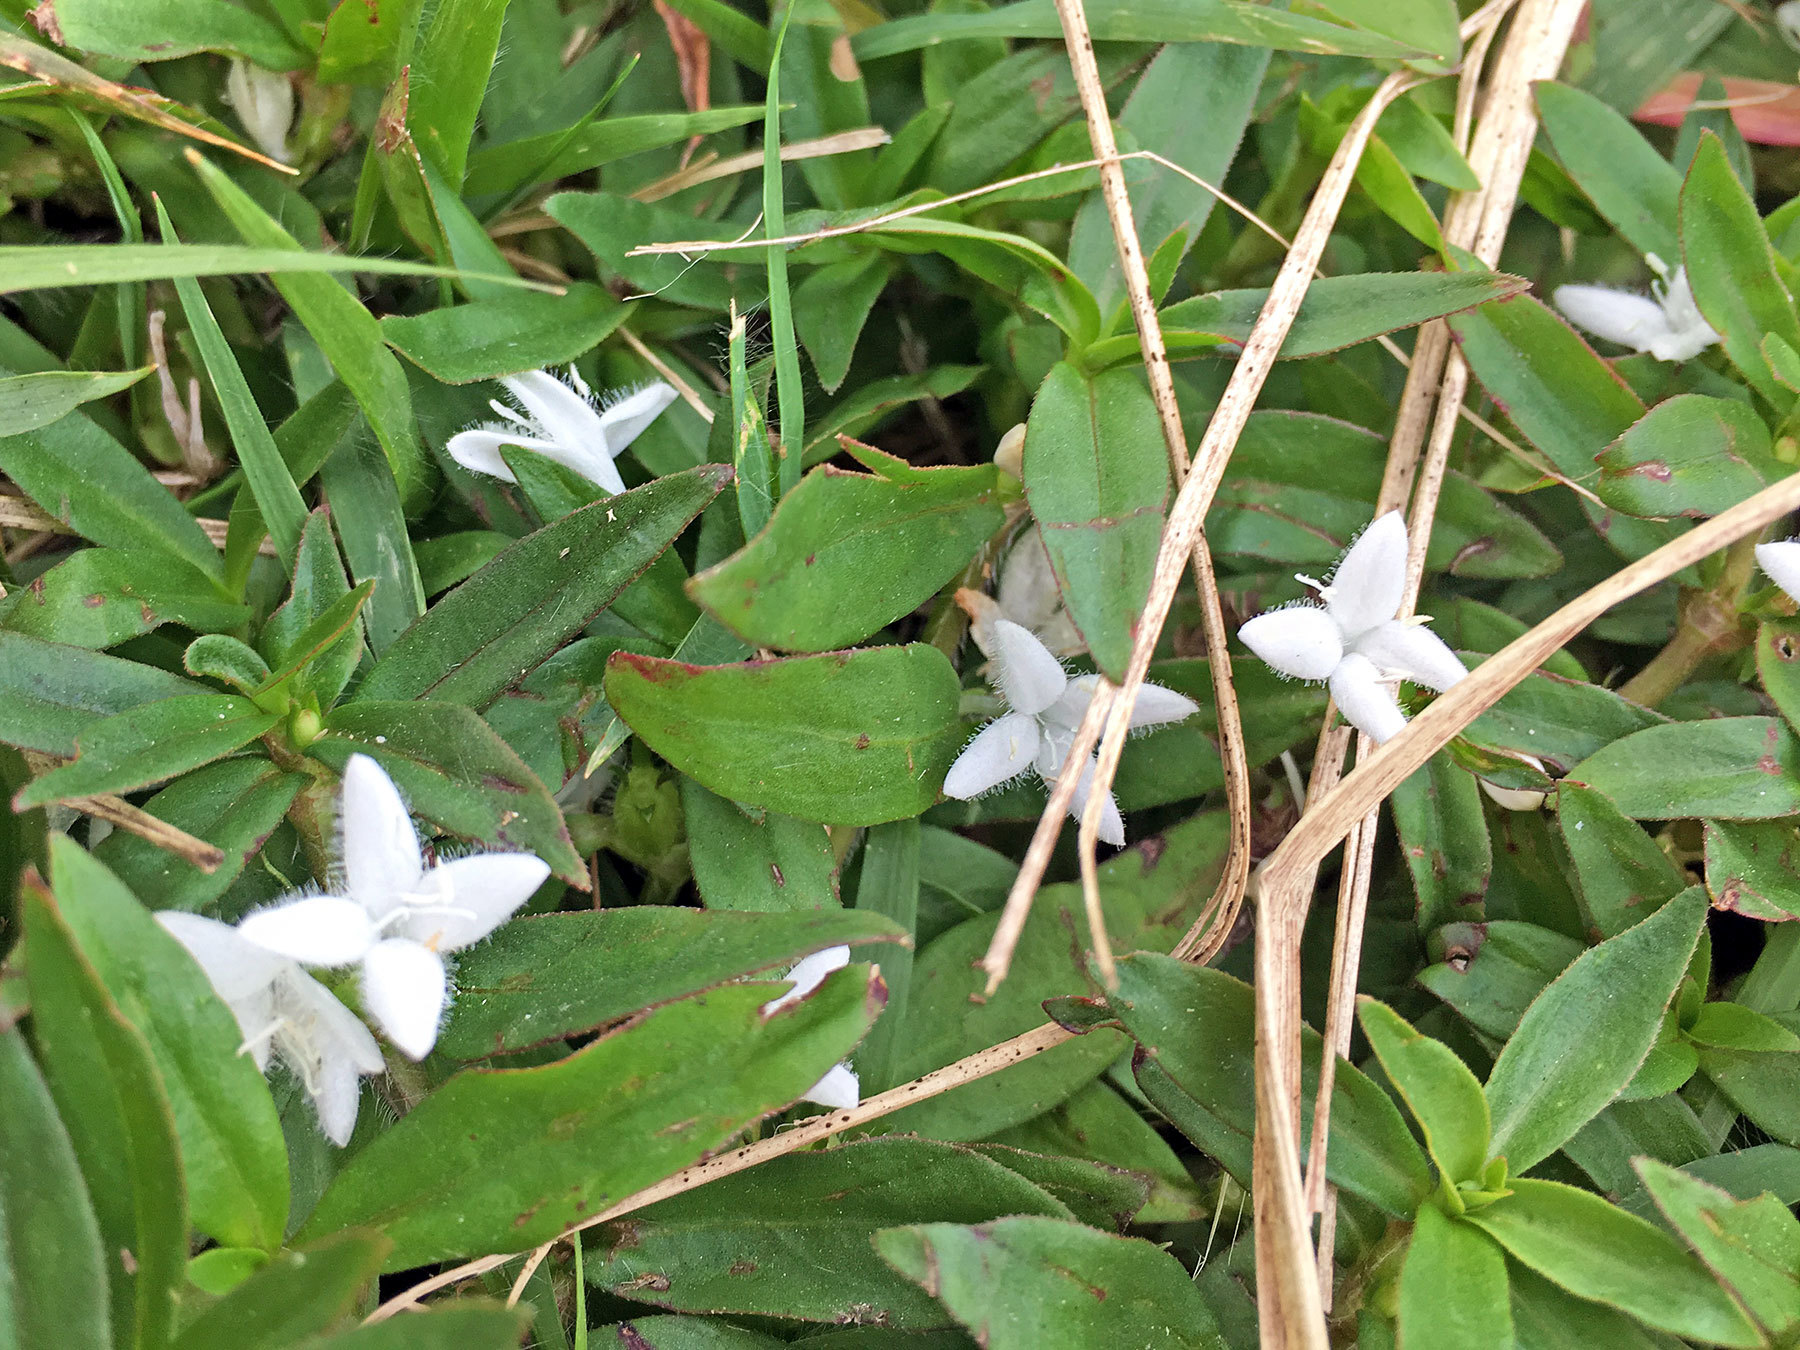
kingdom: Plantae
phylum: Tracheophyta
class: Magnoliopsida
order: Gentianales
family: Rubiaceae
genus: Diodia
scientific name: Diodia virginiana
